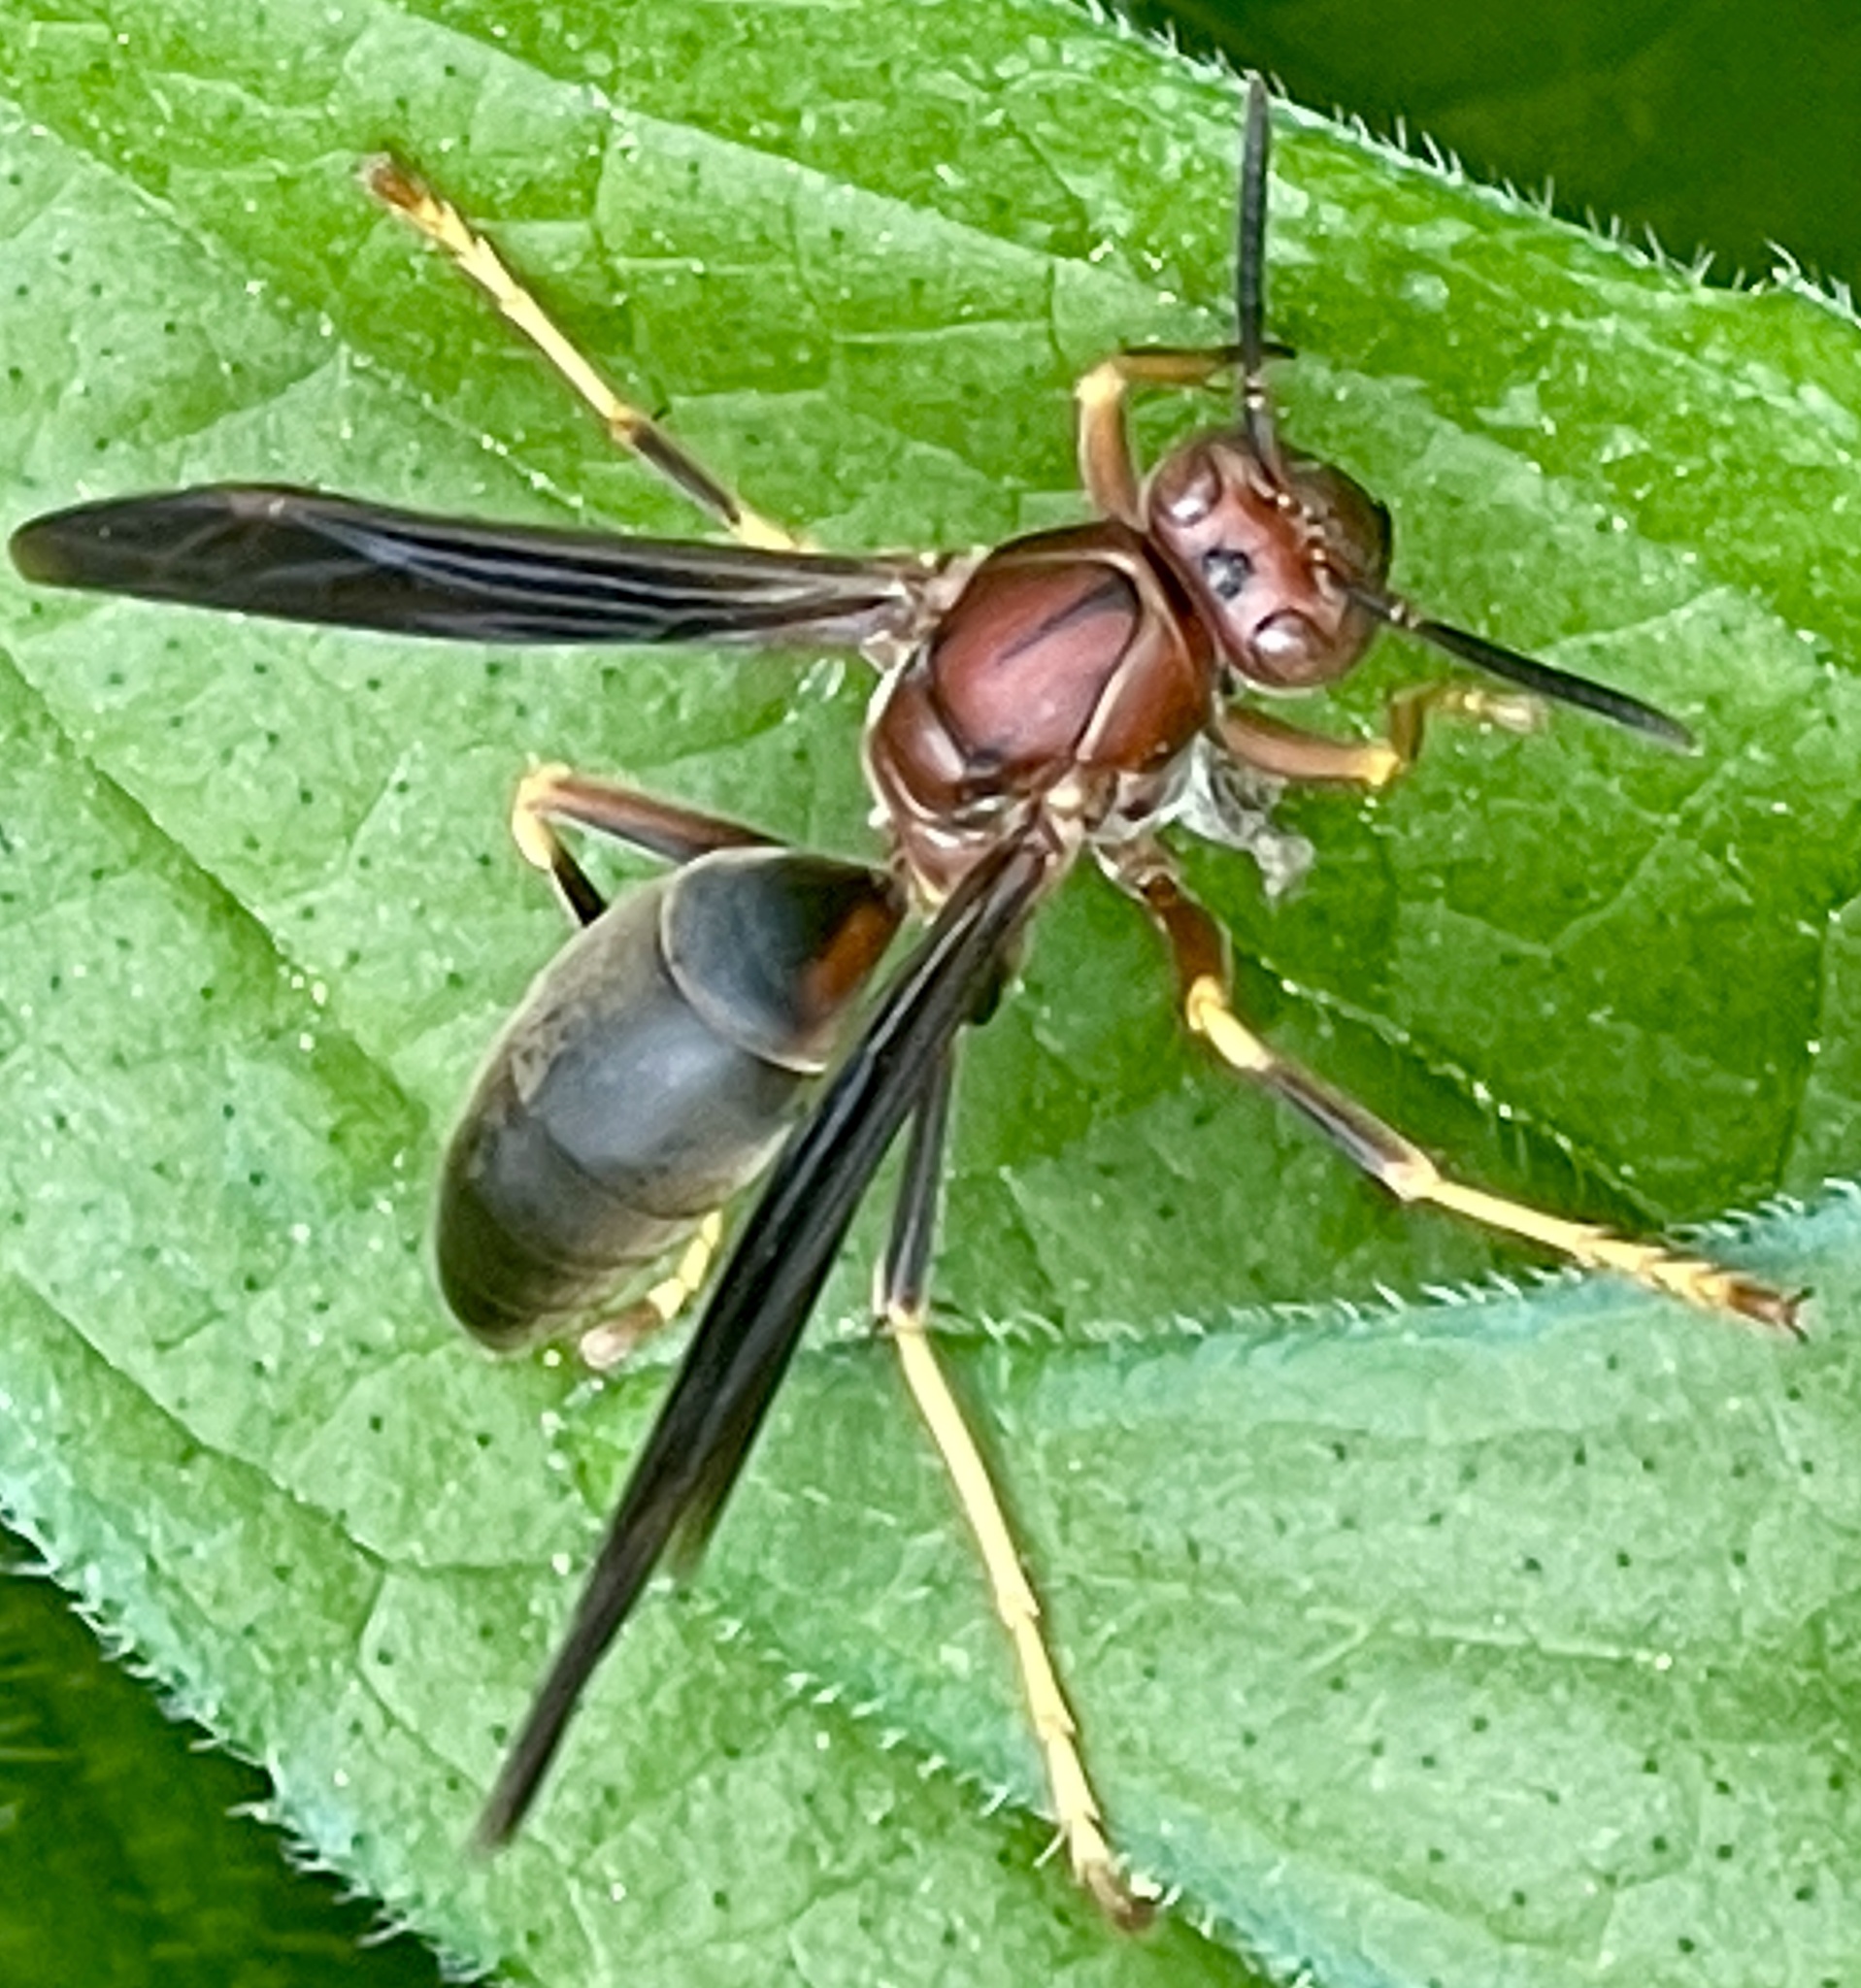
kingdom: Animalia
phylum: Arthropoda
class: Insecta
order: Hymenoptera
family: Eumenidae
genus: Polistes
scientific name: Polistes metricus
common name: Metric paper wasp
